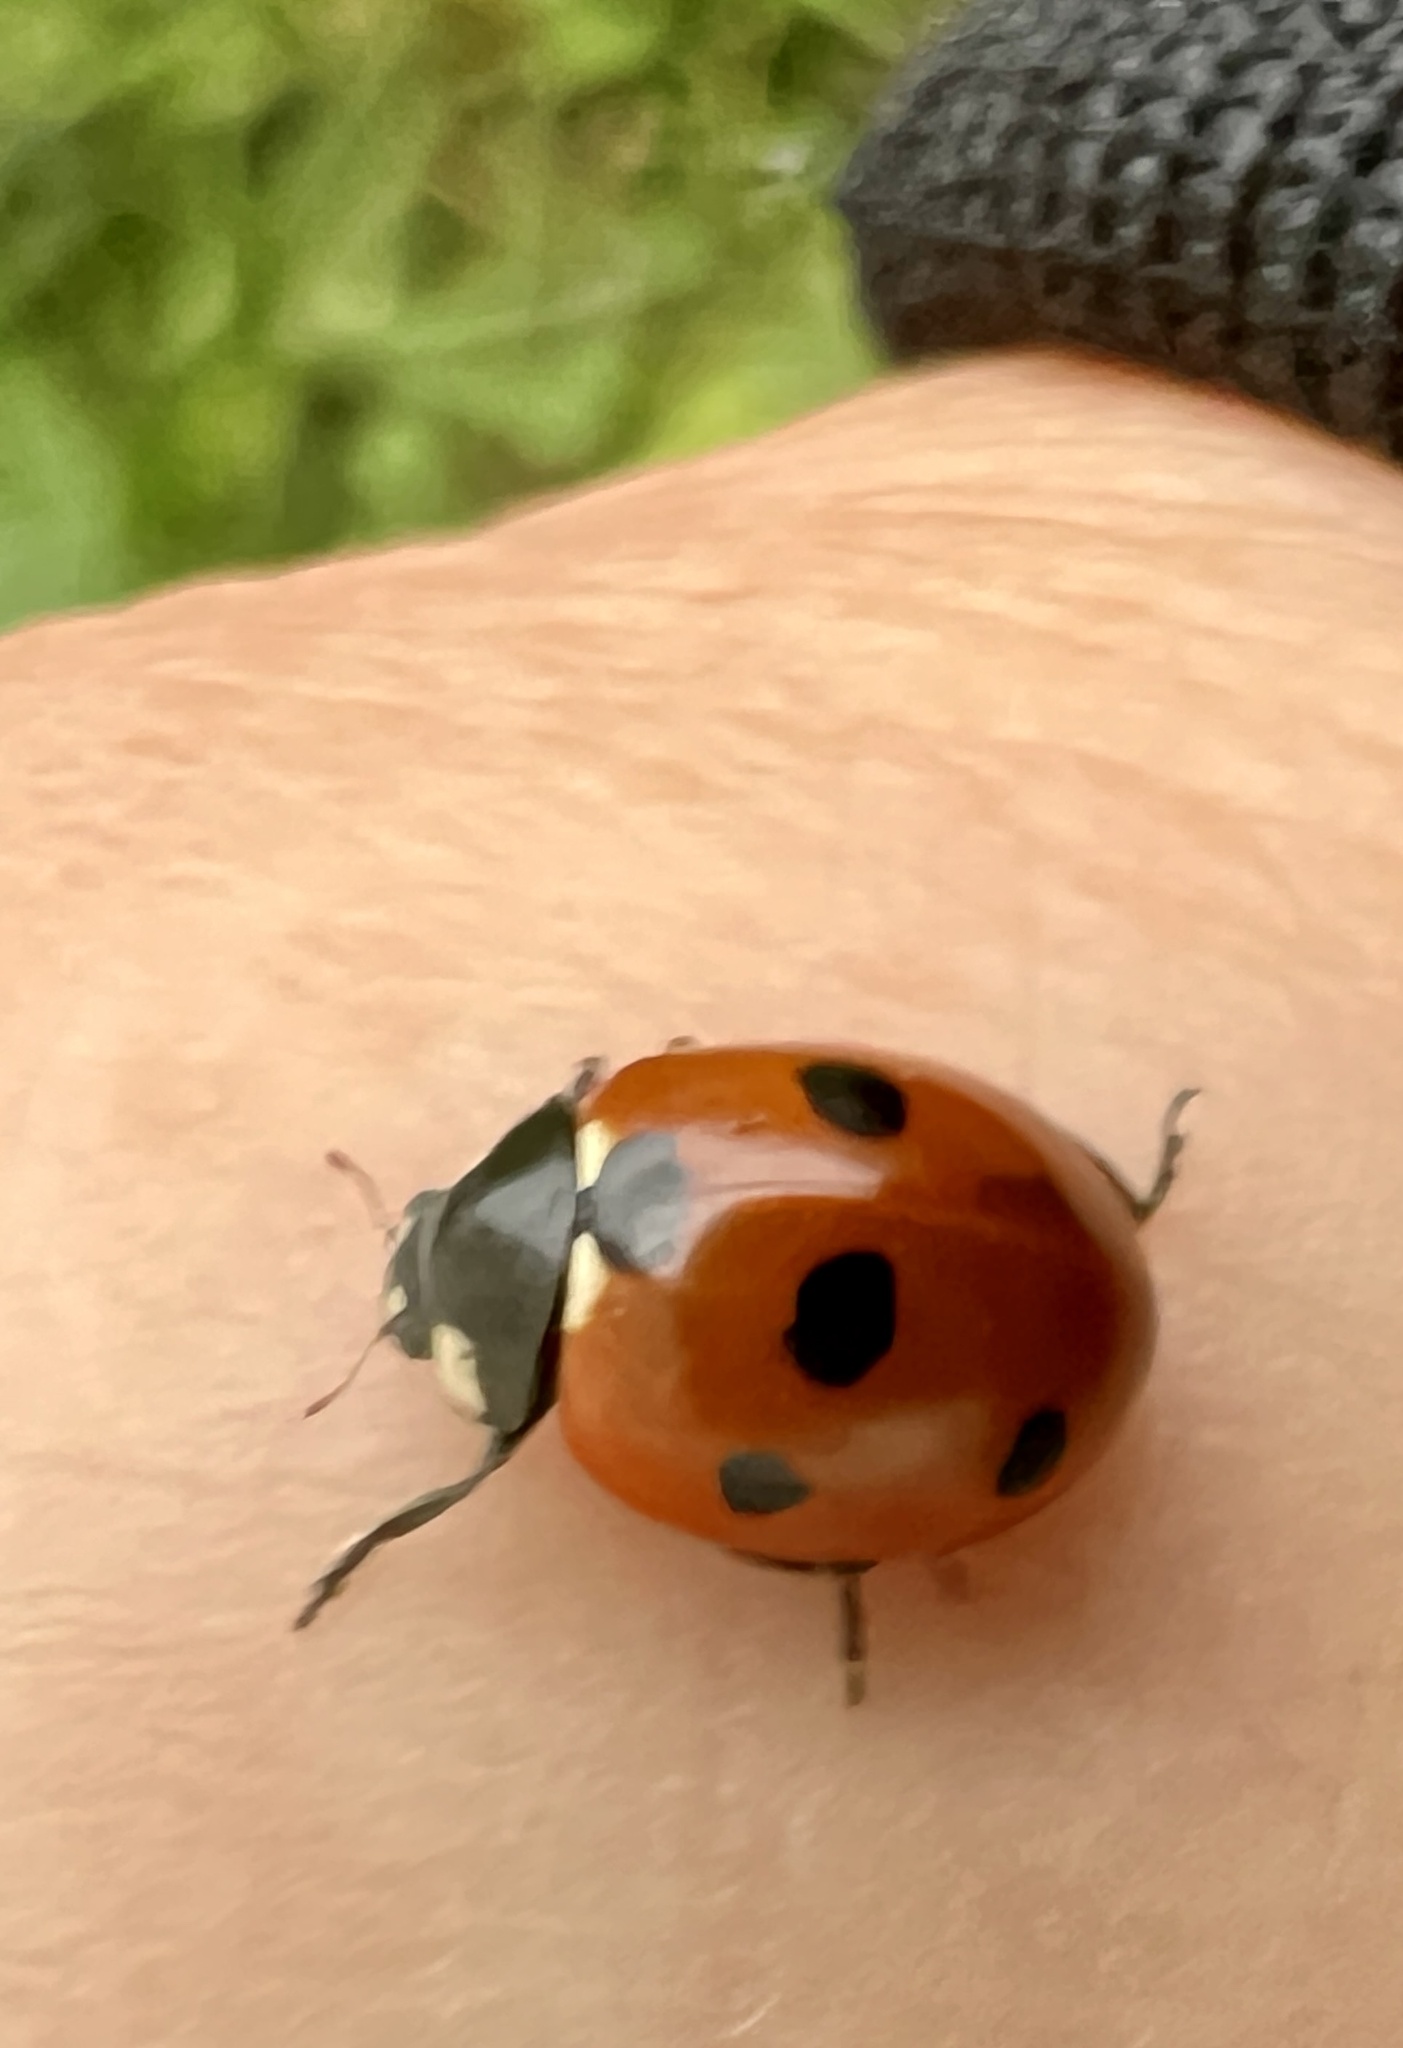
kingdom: Animalia
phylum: Arthropoda
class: Insecta
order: Coleoptera
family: Coccinellidae
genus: Coccinella
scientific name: Coccinella septempunctata
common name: Sevenspotted lady beetle
